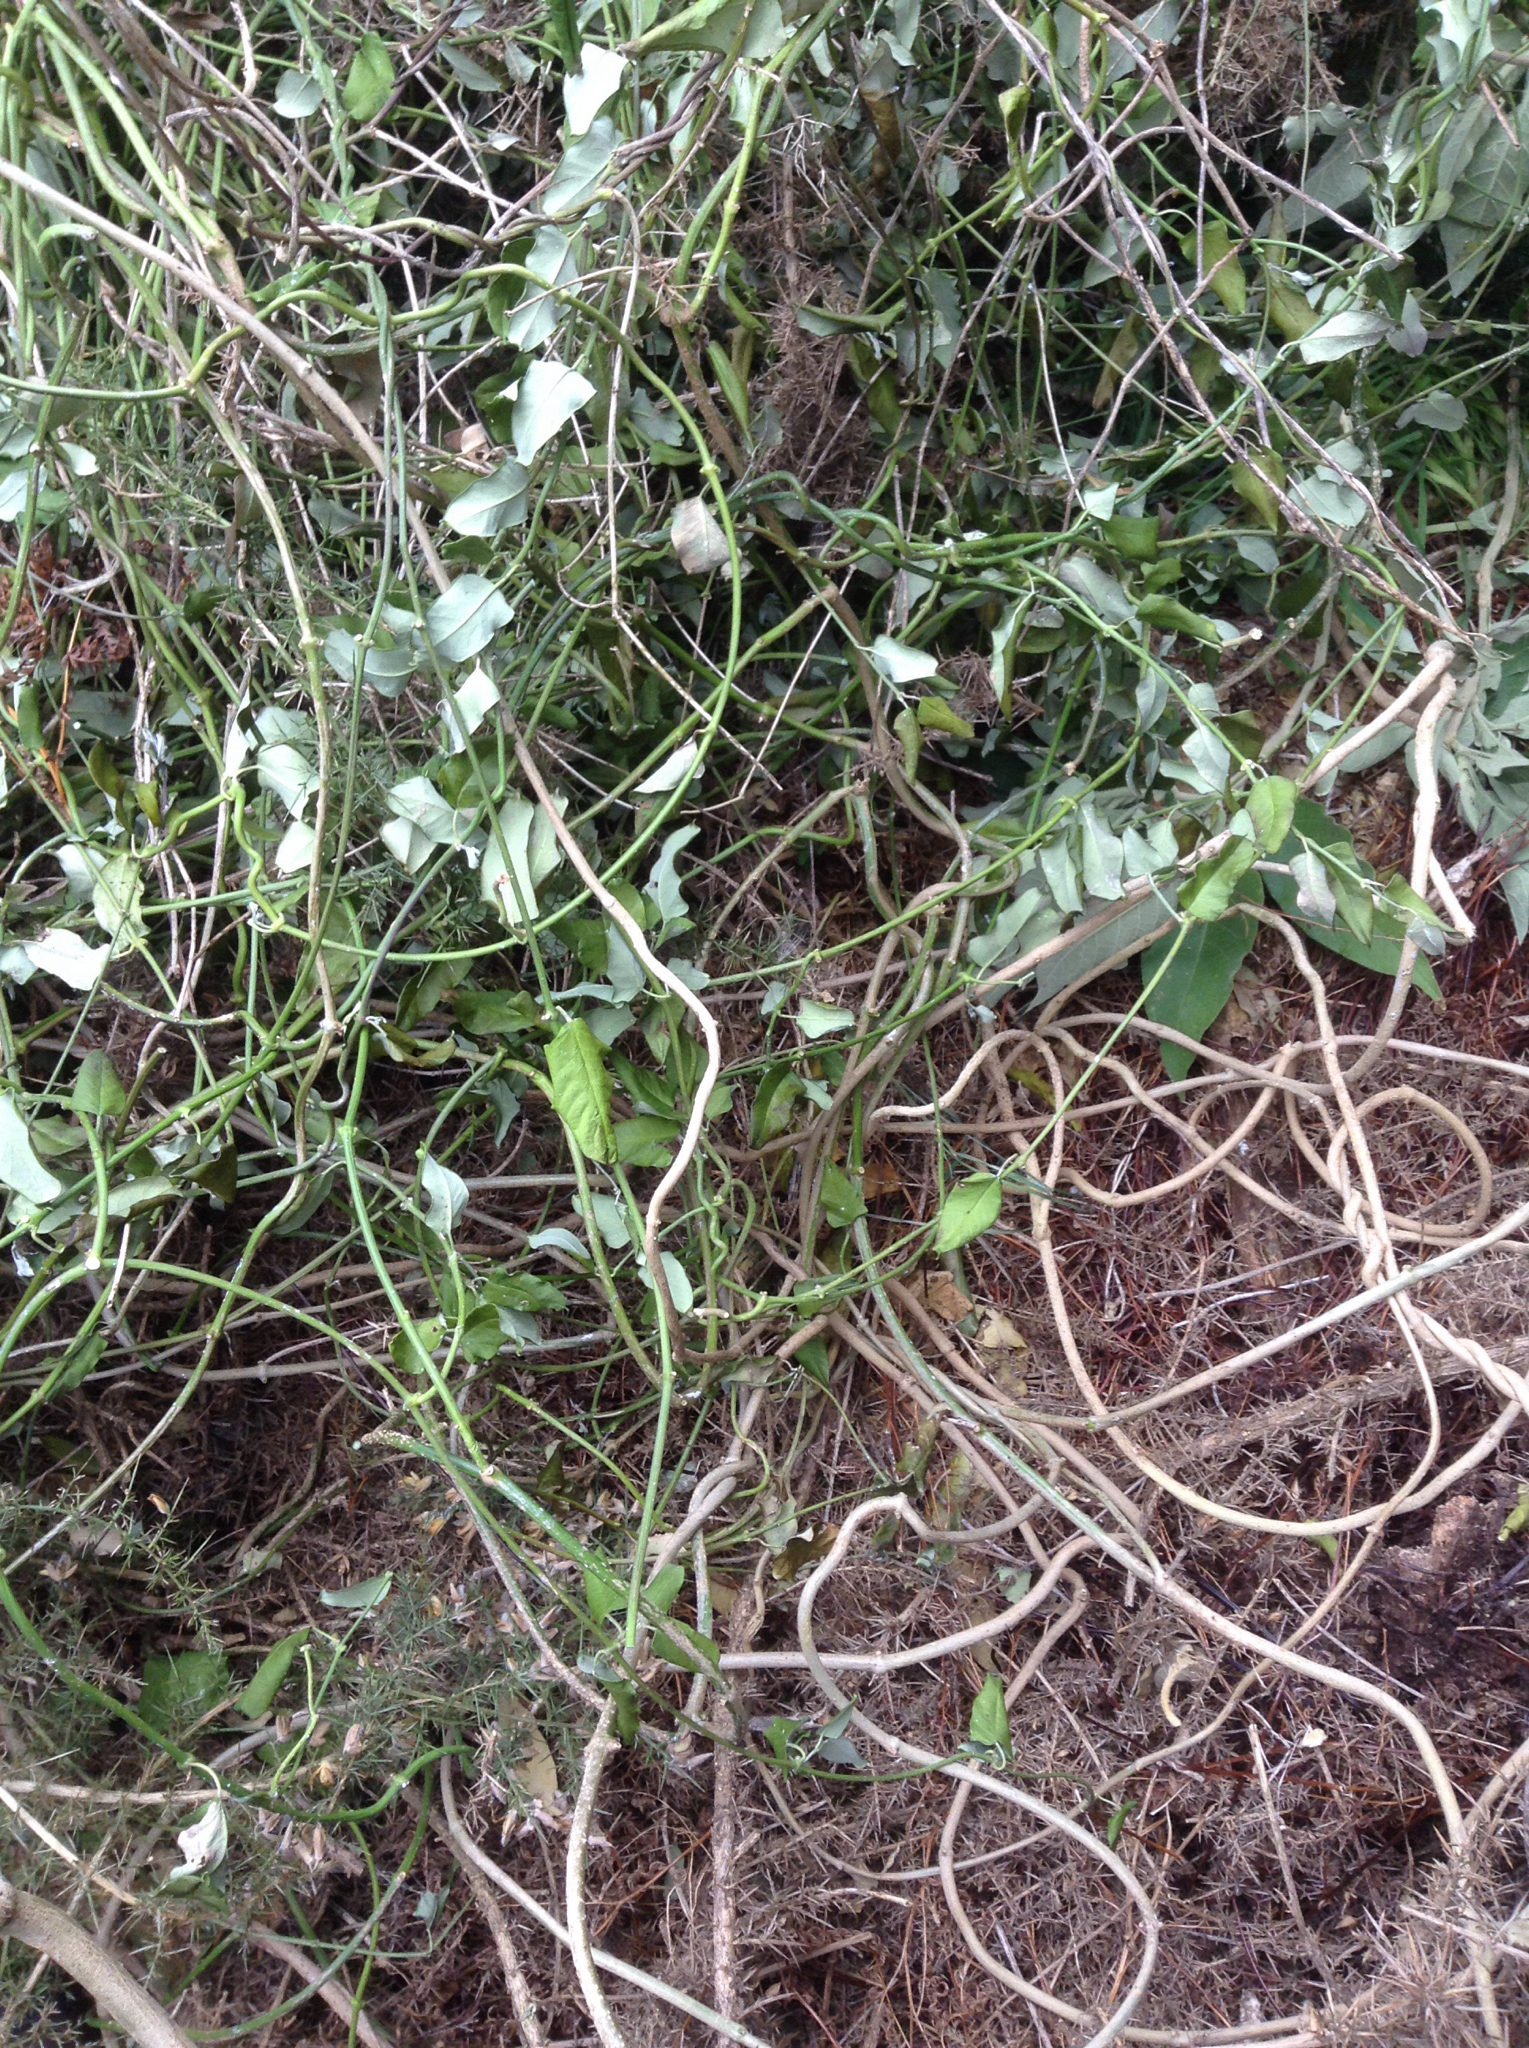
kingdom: Plantae
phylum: Tracheophyta
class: Magnoliopsida
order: Gentianales
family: Apocynaceae
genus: Araujia
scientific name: Araujia sericifera
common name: White bladderflower
